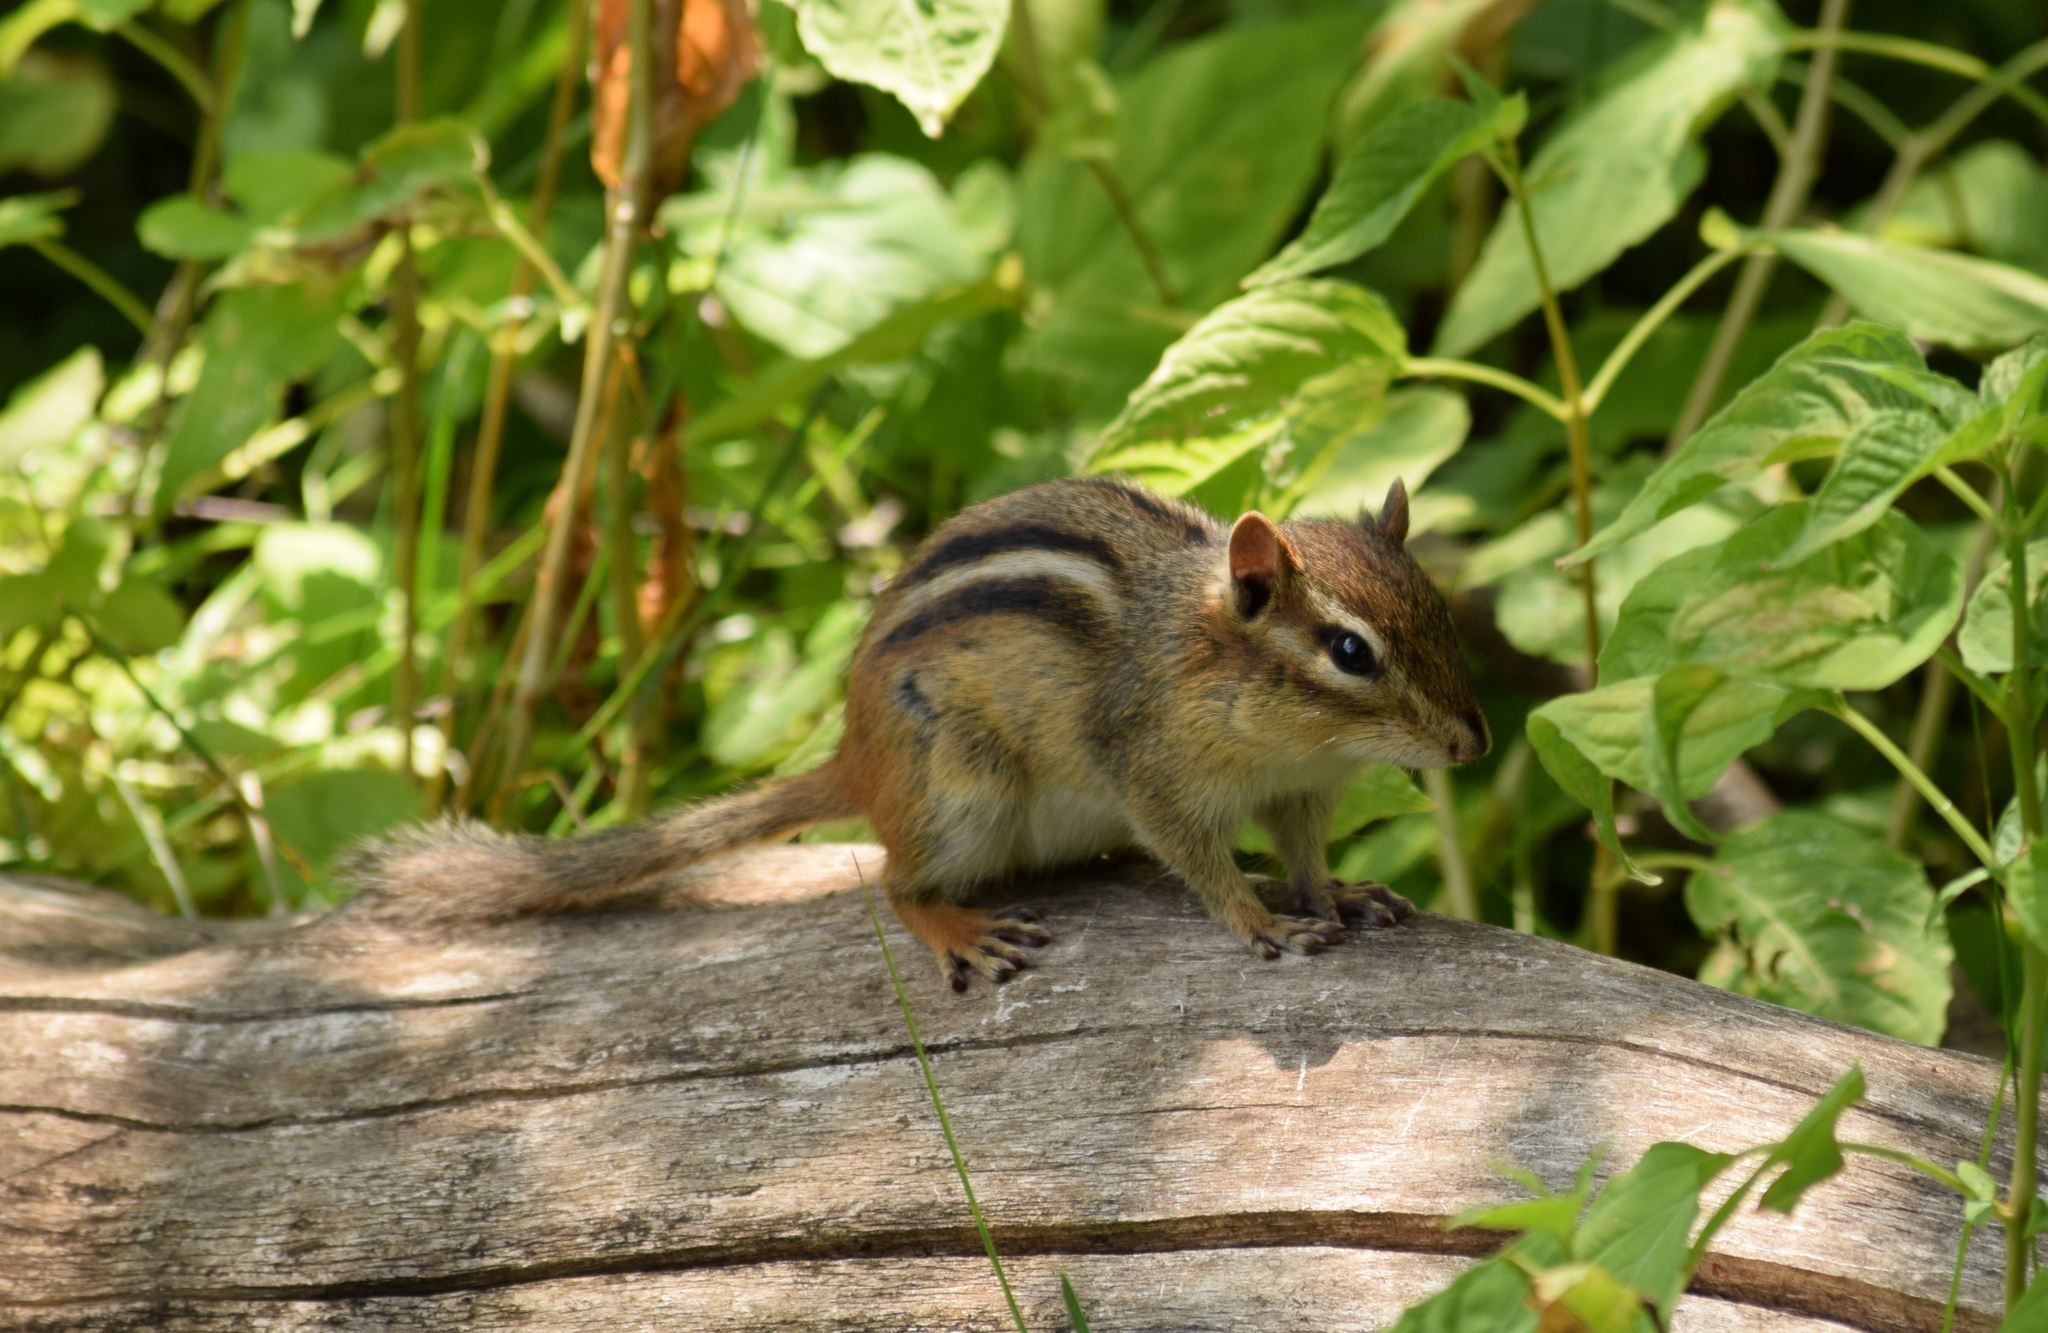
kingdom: Animalia
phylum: Chordata
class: Mammalia
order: Rodentia
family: Sciuridae
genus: Tamias
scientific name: Tamias striatus
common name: Eastern chipmunk
